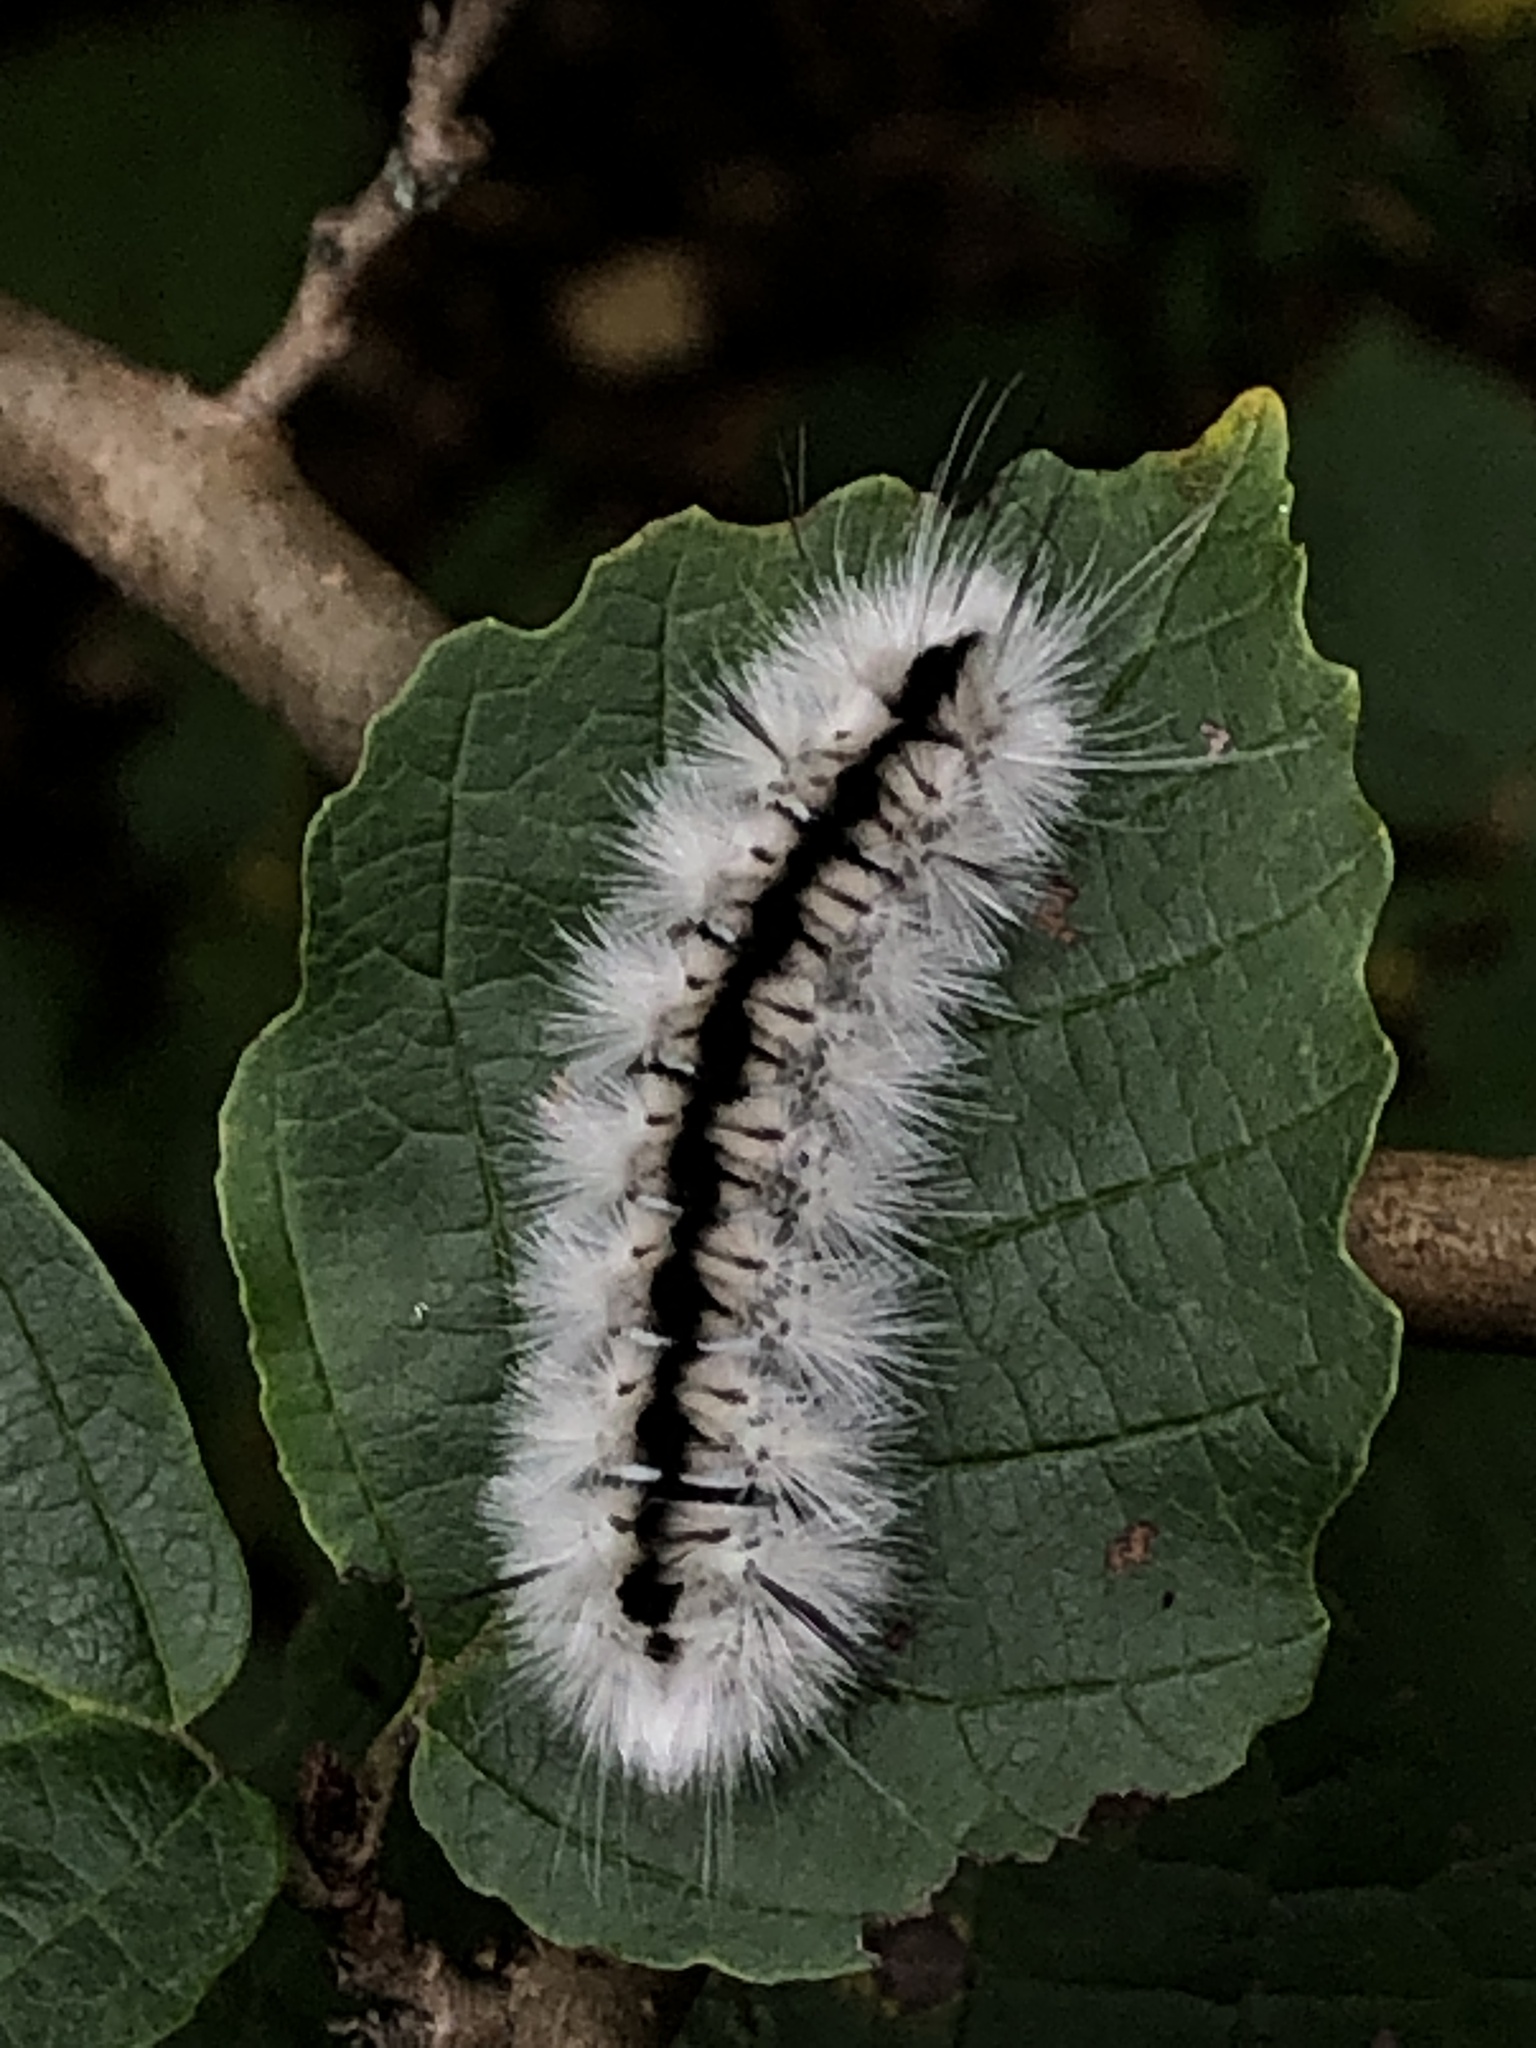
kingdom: Animalia
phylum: Arthropoda
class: Insecta
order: Lepidoptera
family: Erebidae
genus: Lophocampa
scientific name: Lophocampa caryae
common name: Hickory tussock moth
